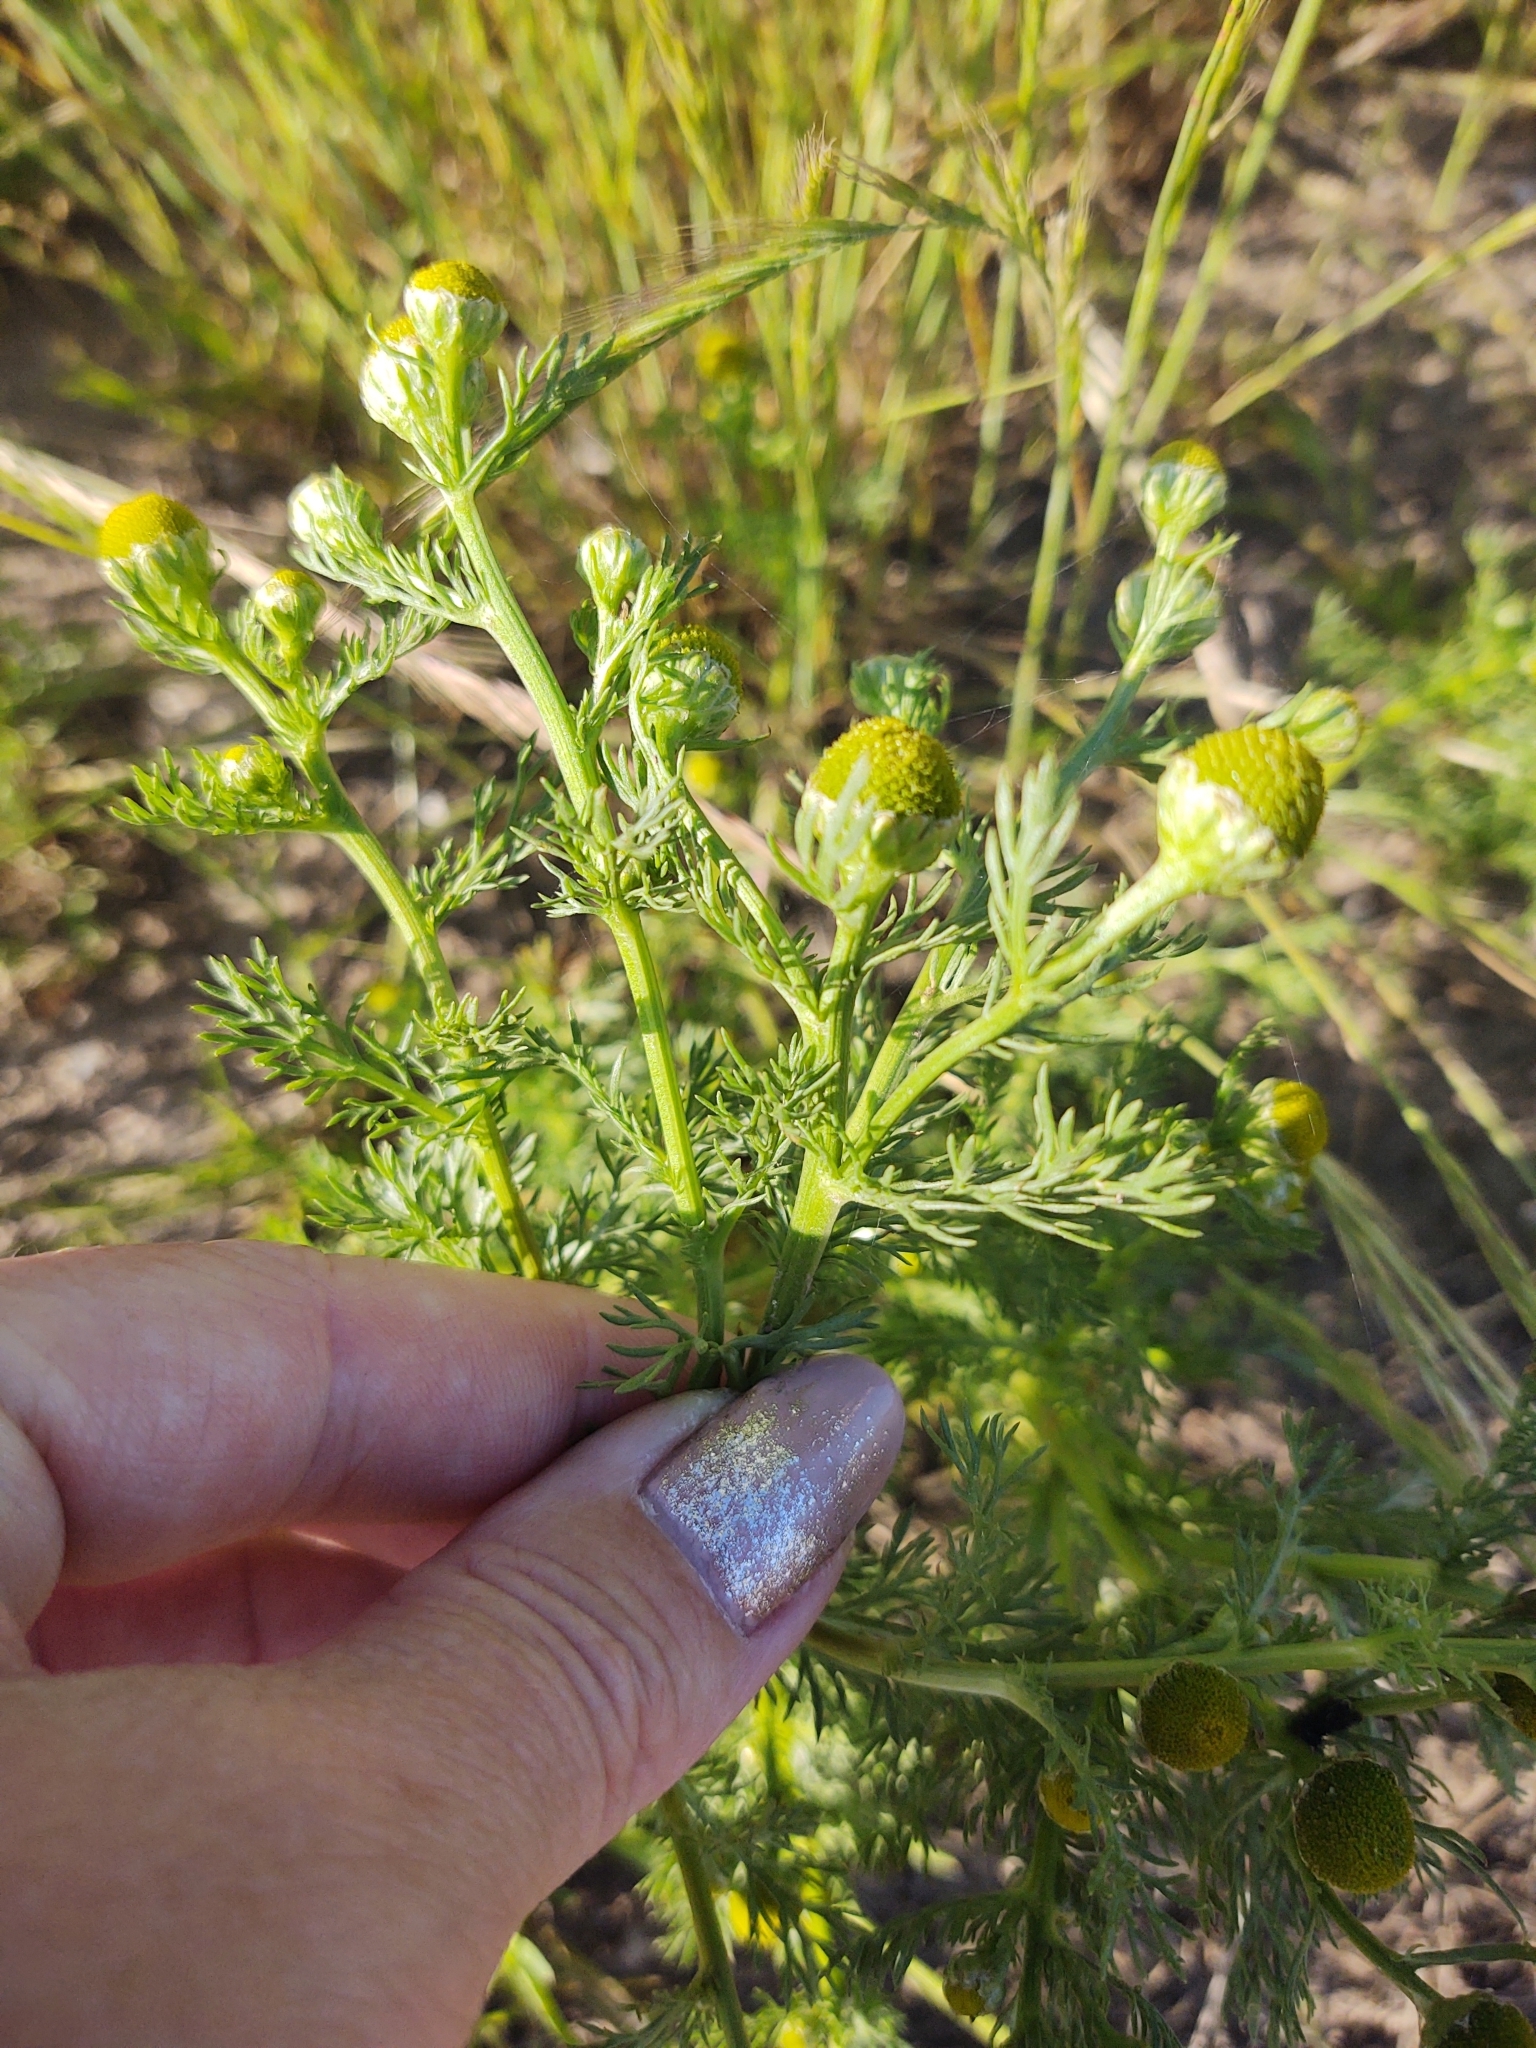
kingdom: Plantae
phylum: Tracheophyta
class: Magnoliopsida
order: Asterales
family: Asteraceae
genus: Matricaria
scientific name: Matricaria discoidea
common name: Disc mayweed
